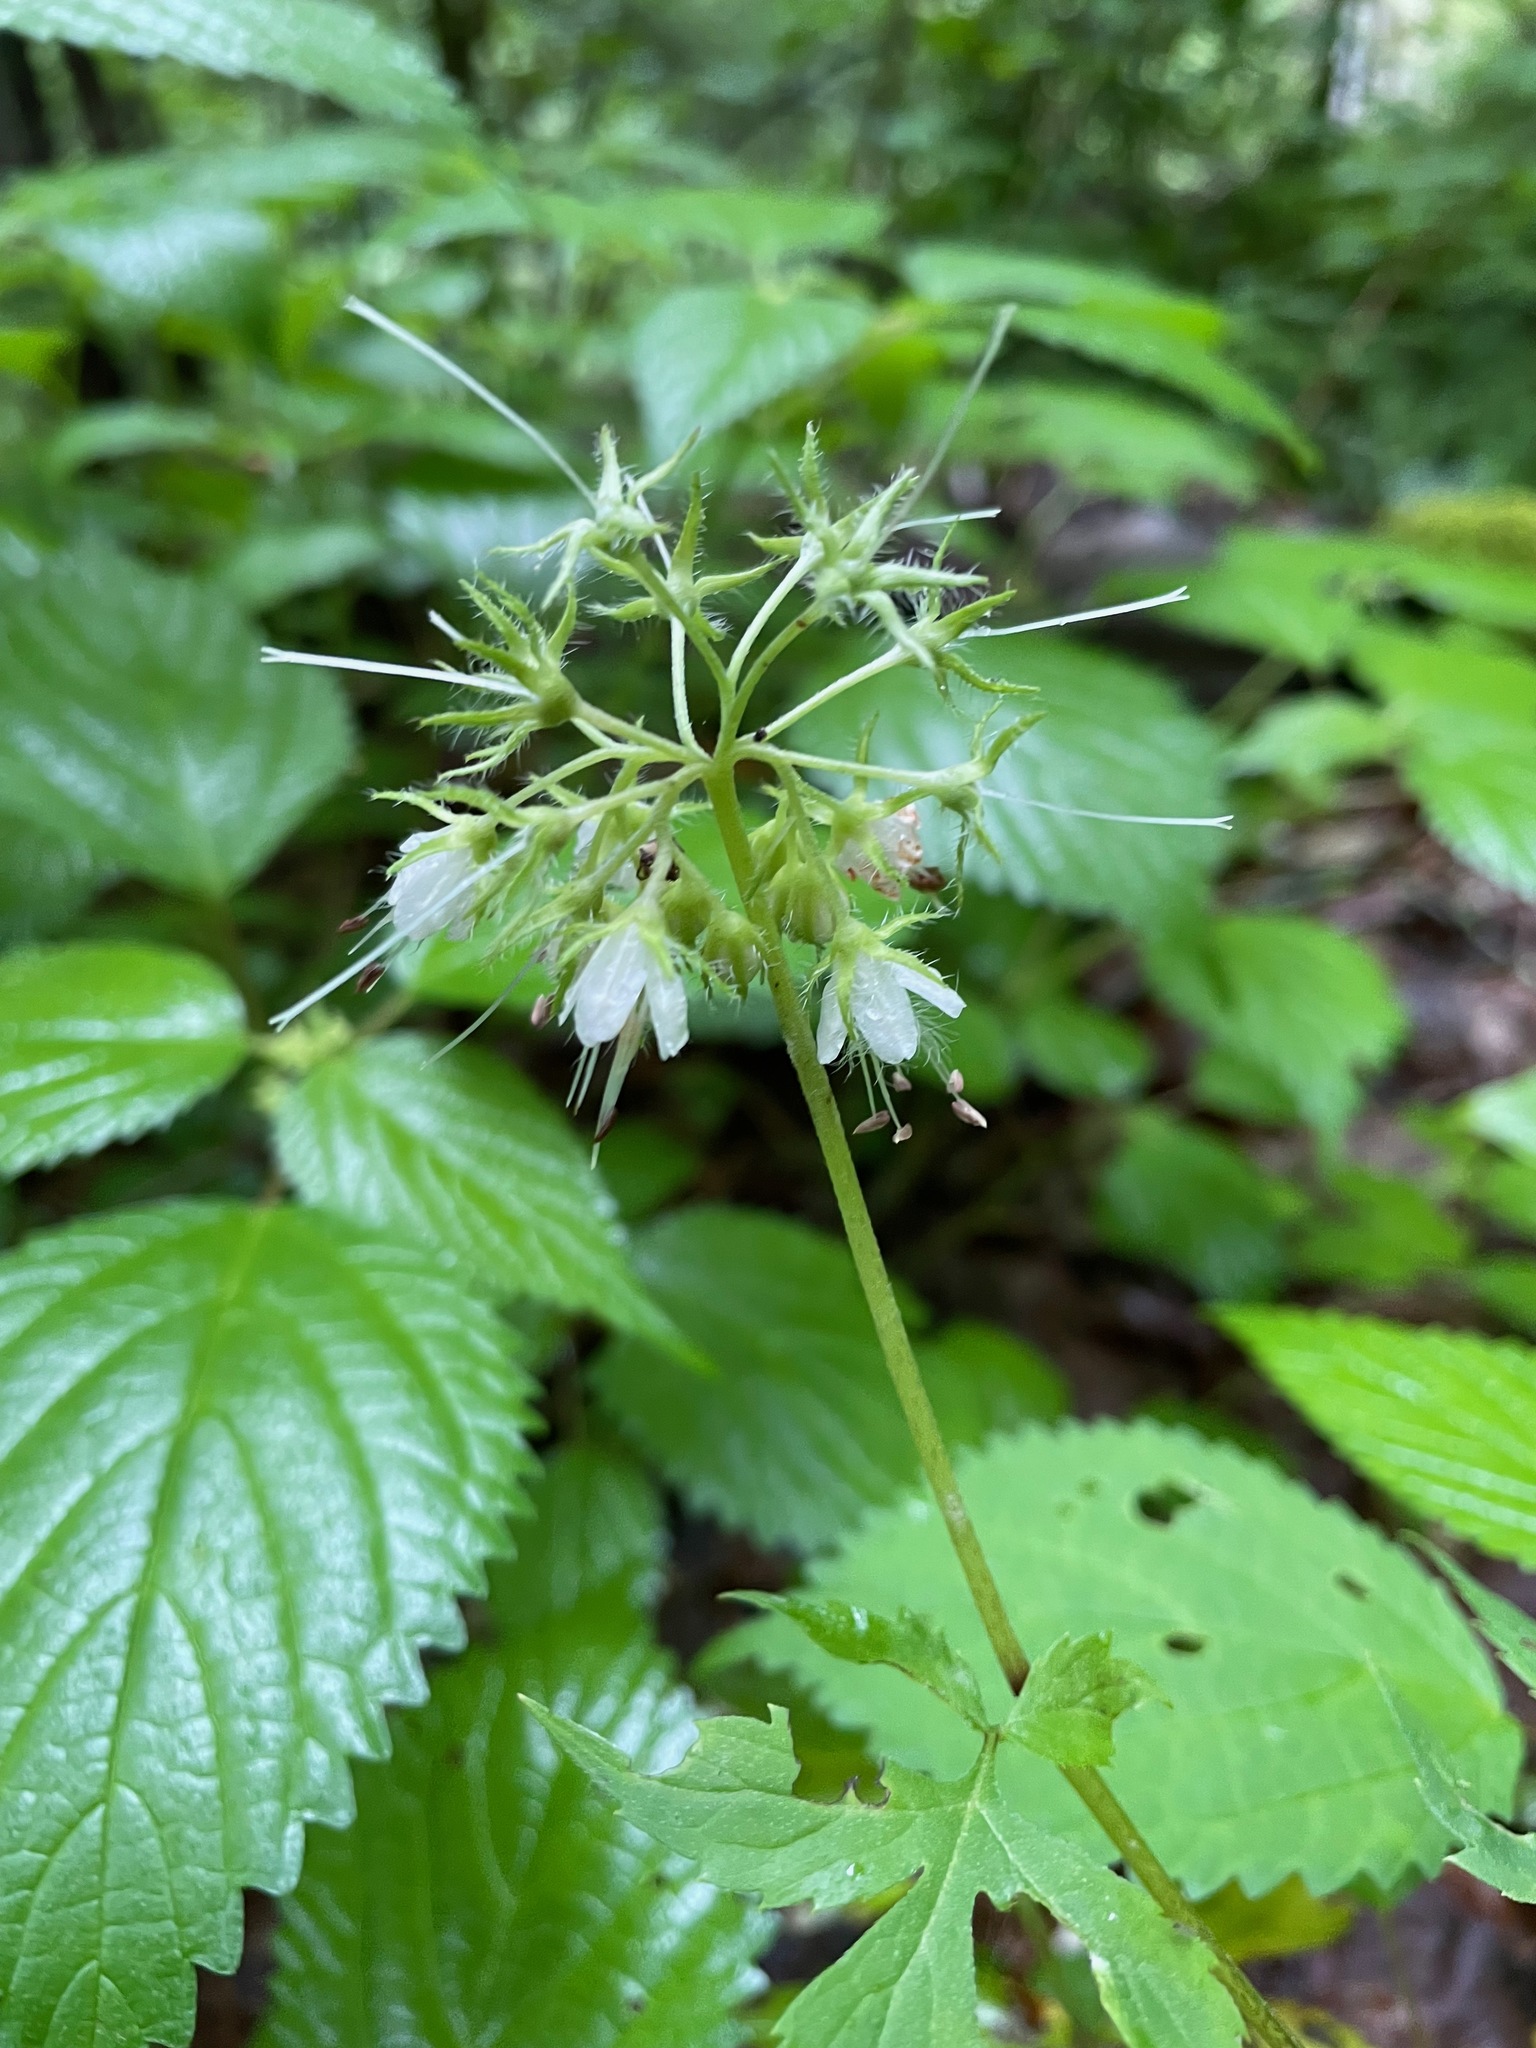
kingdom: Plantae
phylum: Tracheophyta
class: Magnoliopsida
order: Boraginales
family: Hydrophyllaceae
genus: Hydrophyllum
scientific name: Hydrophyllum virginianum
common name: Virginia waterleaf
